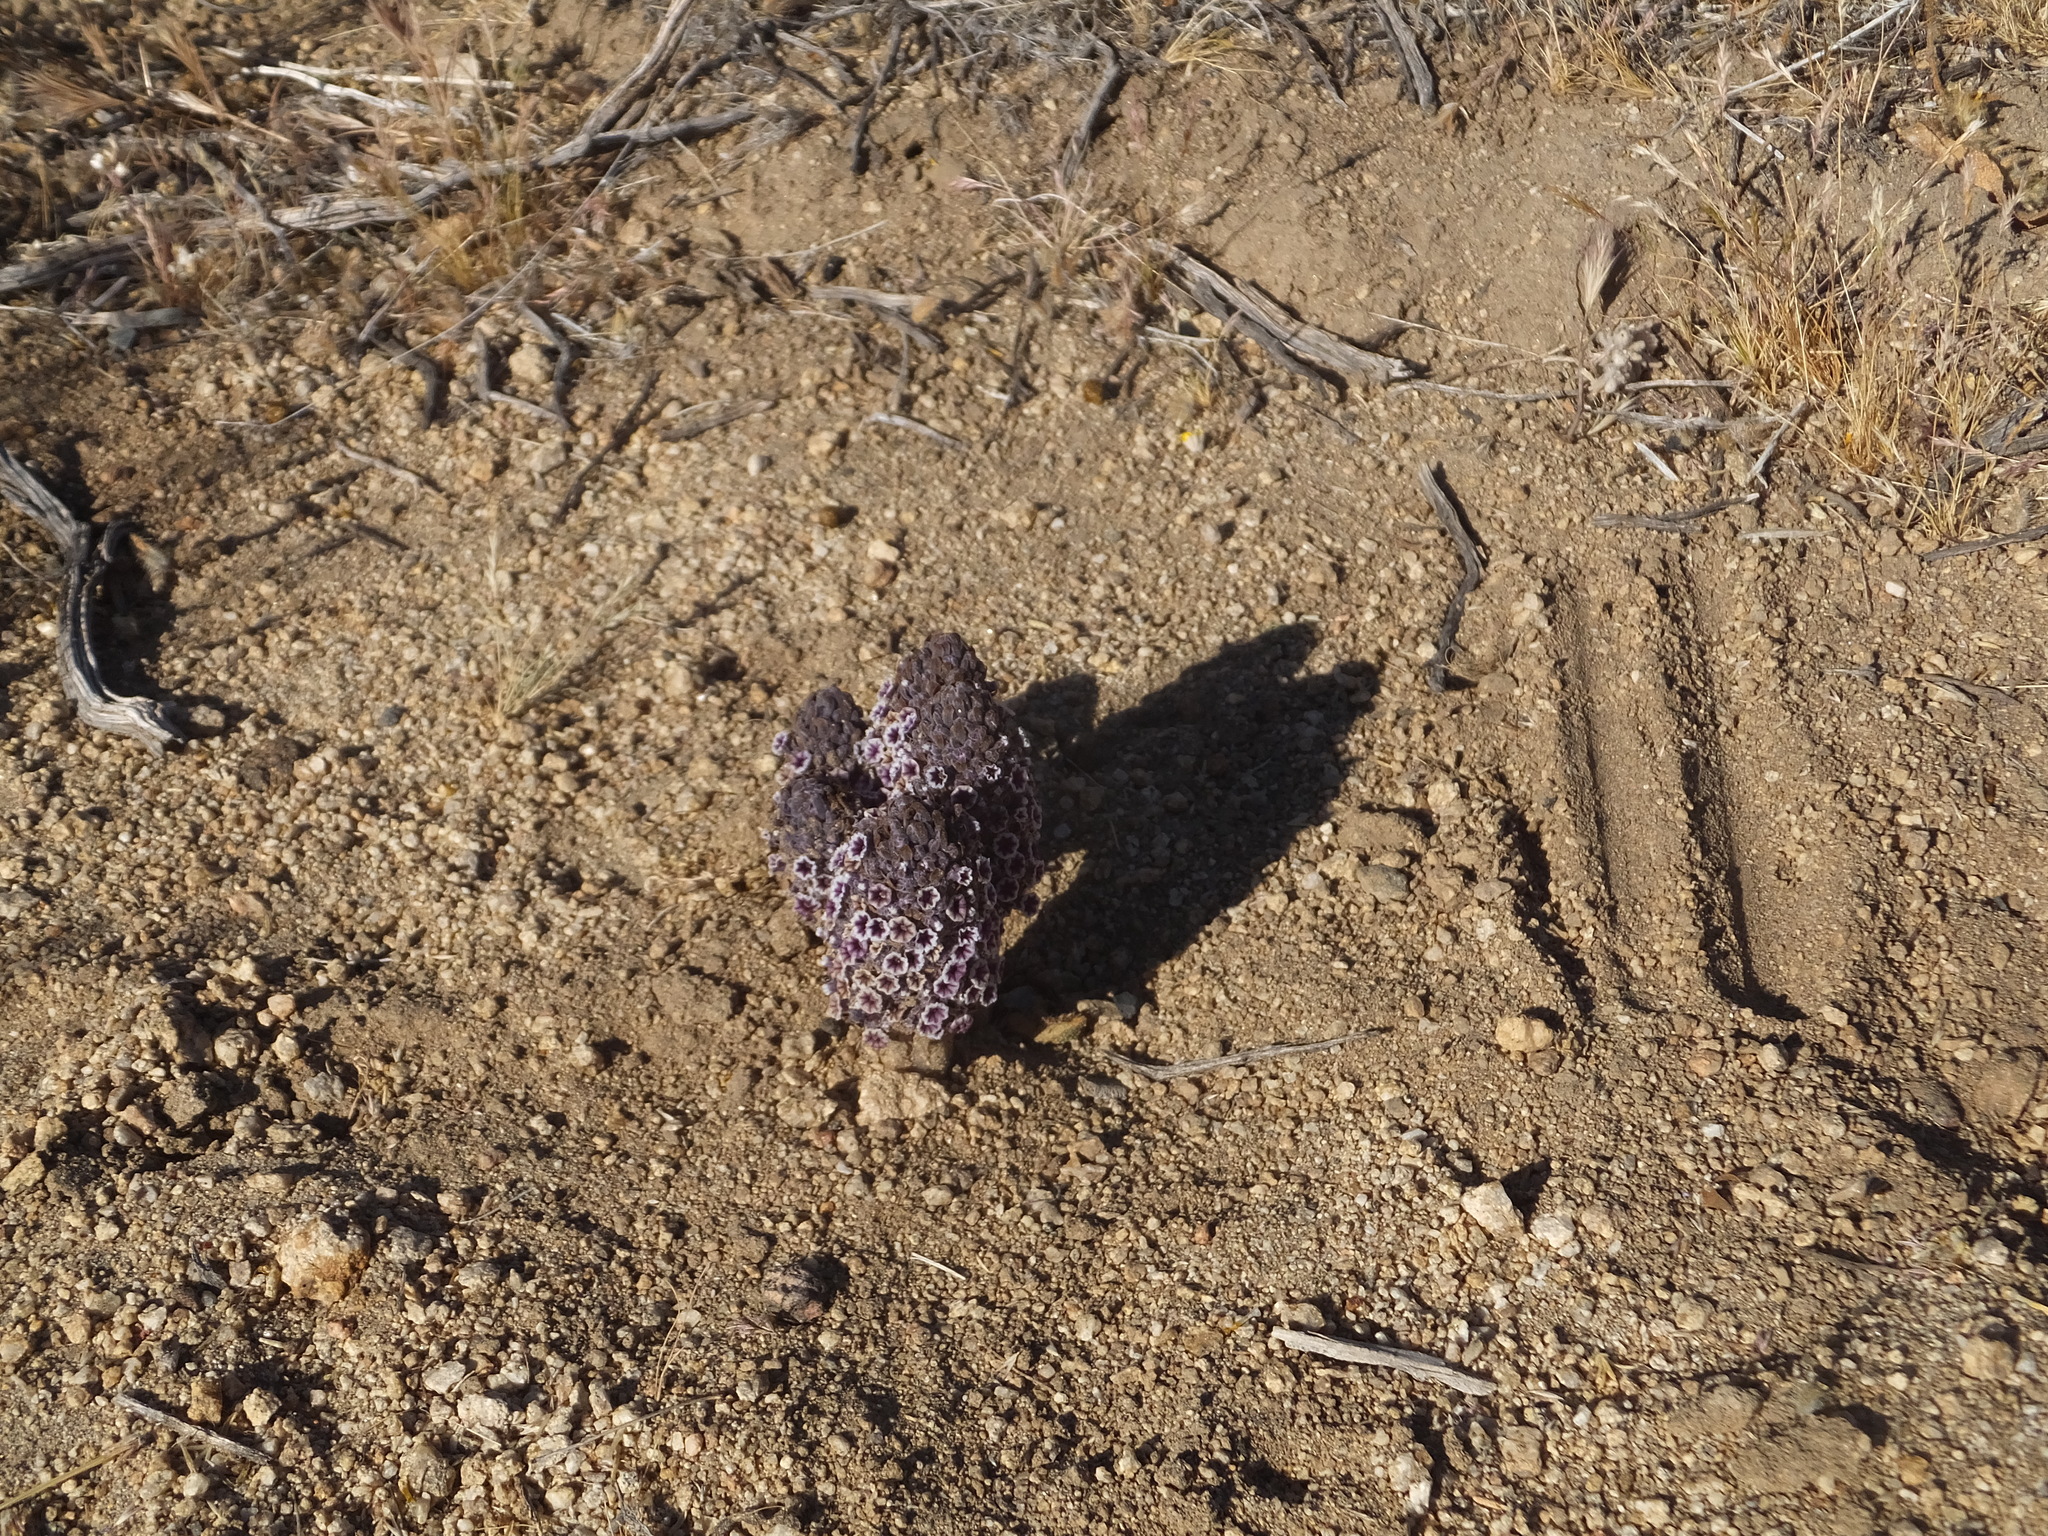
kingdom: Plantae
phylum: Tracheophyta
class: Magnoliopsida
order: Boraginales
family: Lennoaceae
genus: Pholisma
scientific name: Pholisma arenarium
